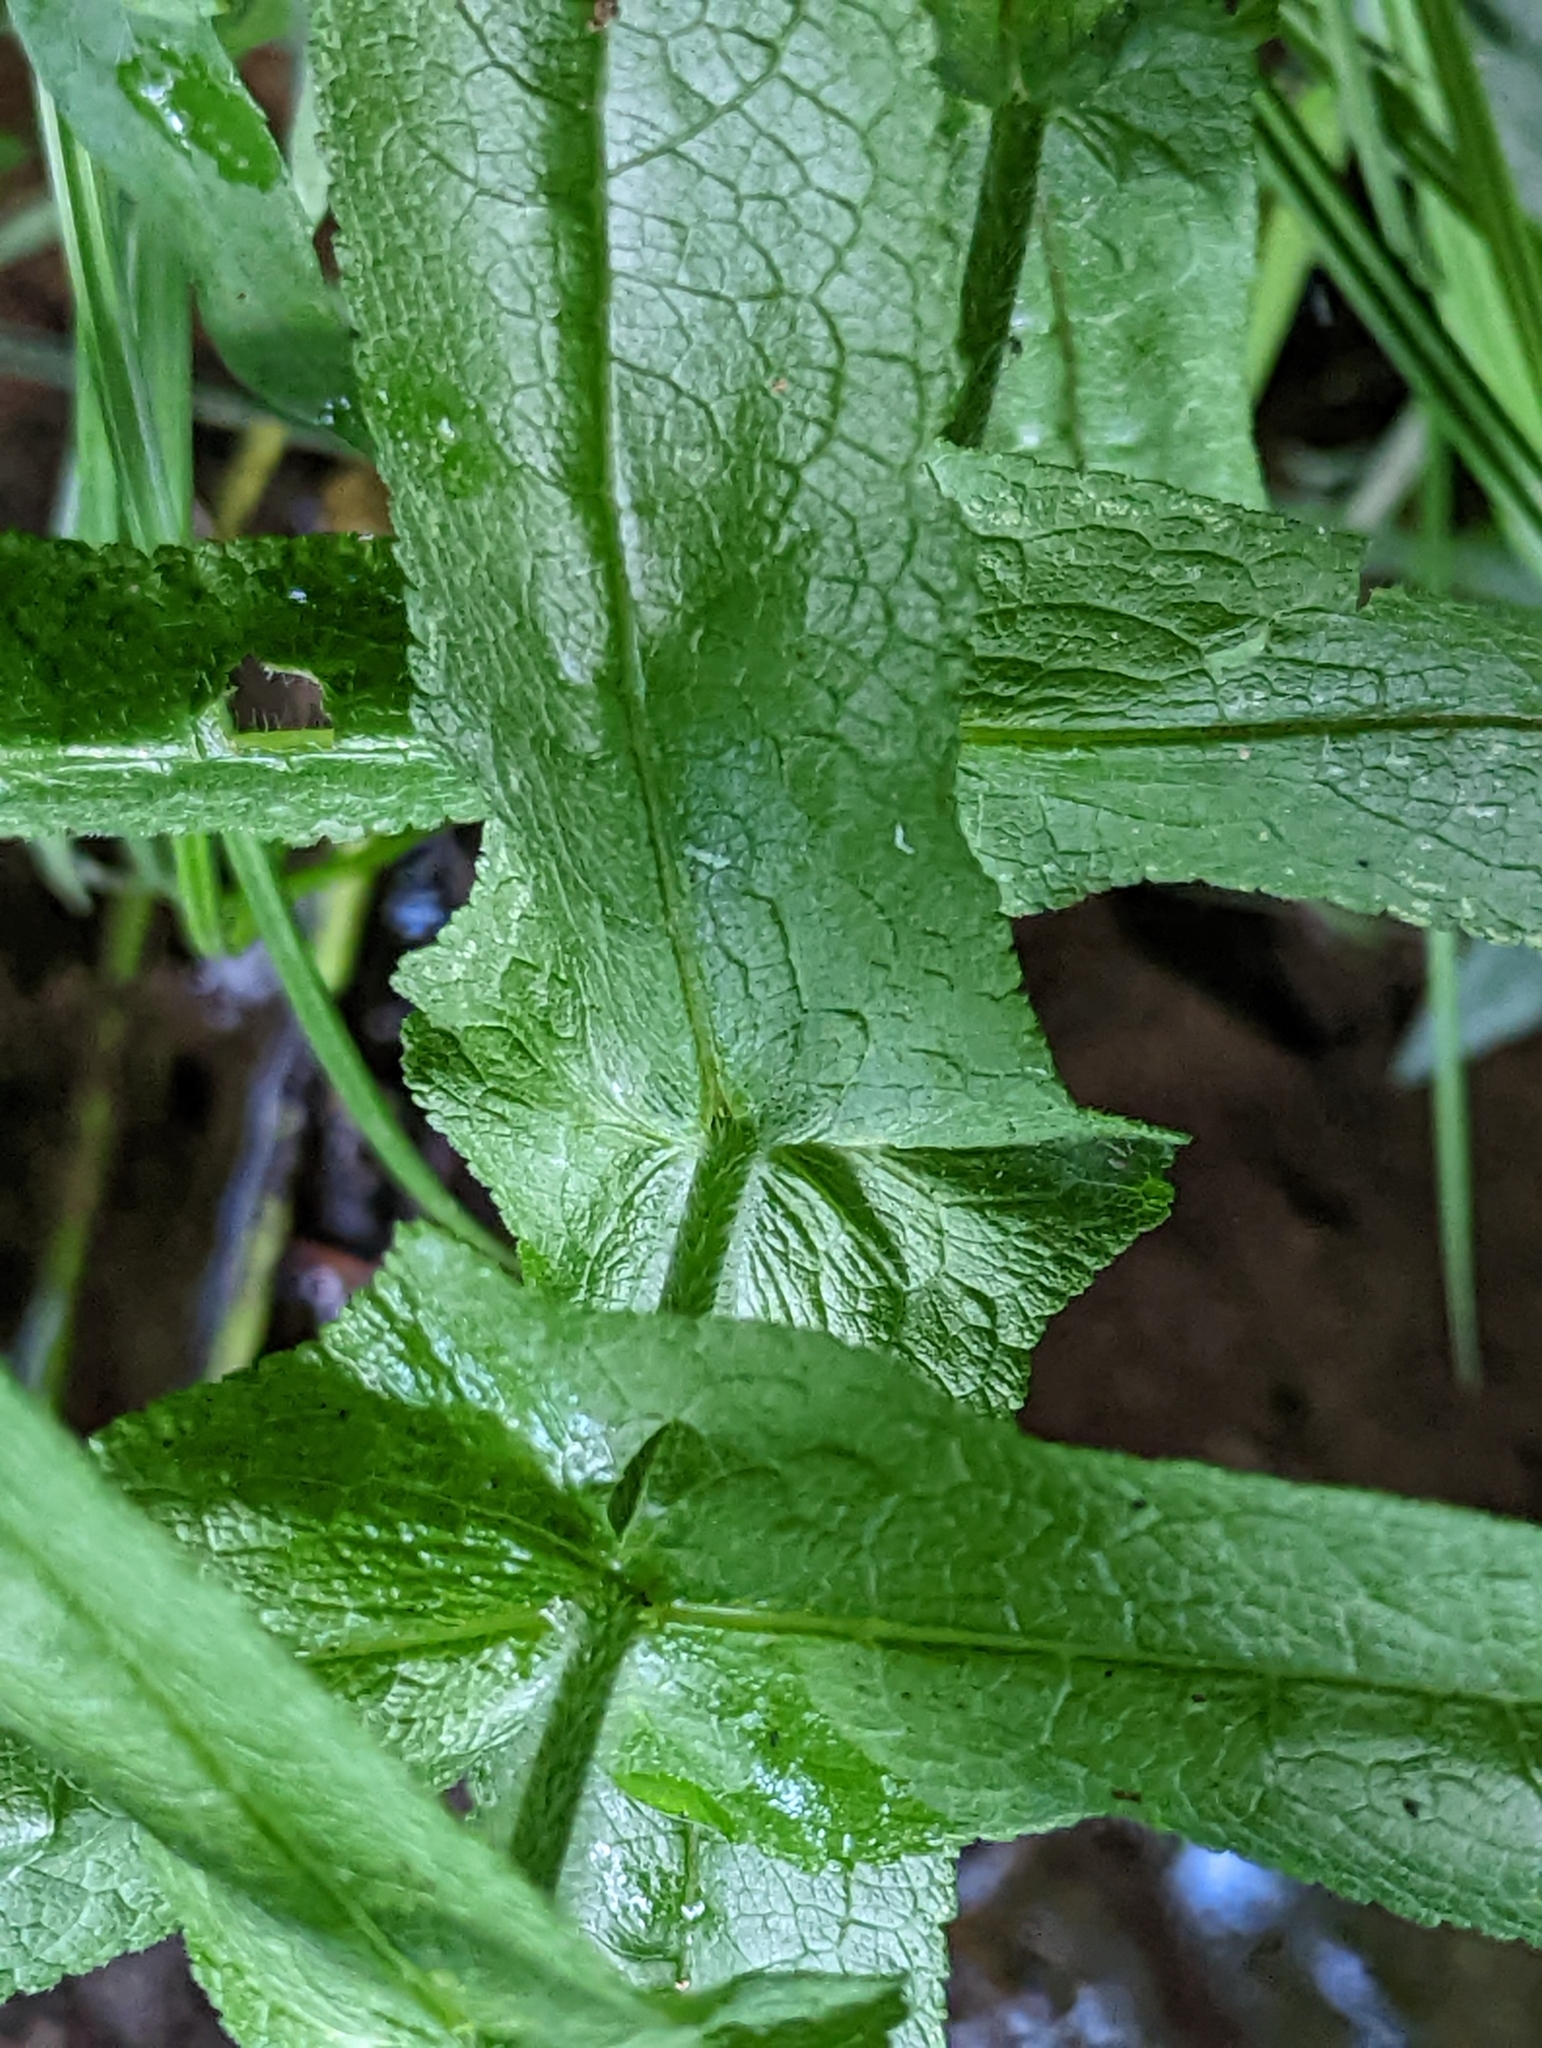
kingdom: Plantae
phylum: Tracheophyta
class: Magnoliopsida
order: Asterales
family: Asteraceae
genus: Eupatorium
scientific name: Eupatorium perfoliatum
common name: Boneset
